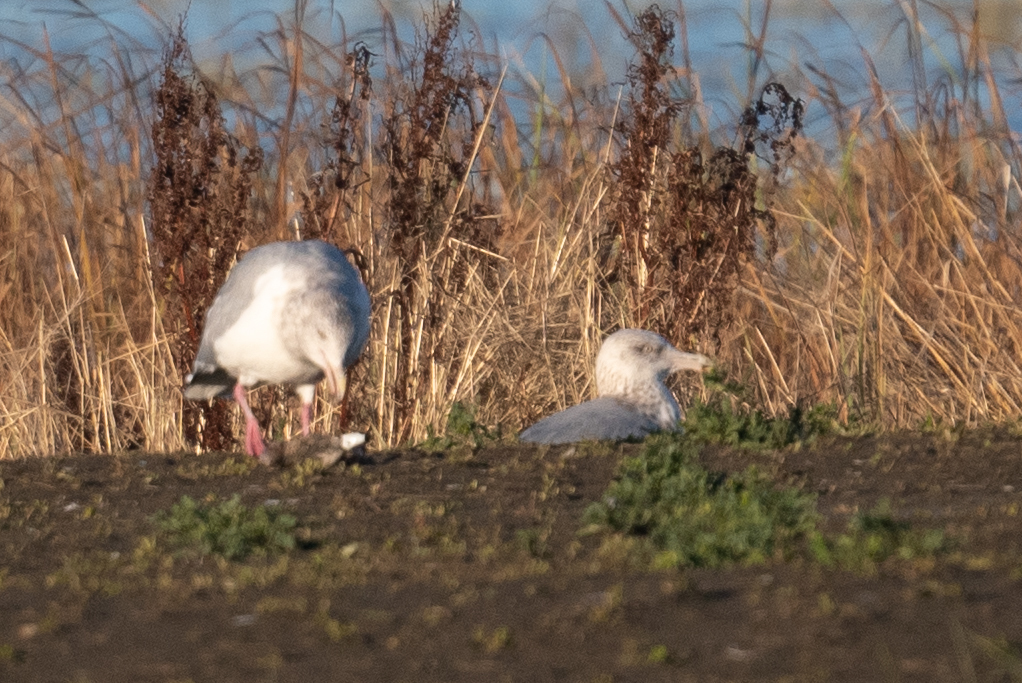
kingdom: Animalia
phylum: Chordata
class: Aves
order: Charadriiformes
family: Laridae
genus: Larus
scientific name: Larus argentatus
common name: Herring gull
